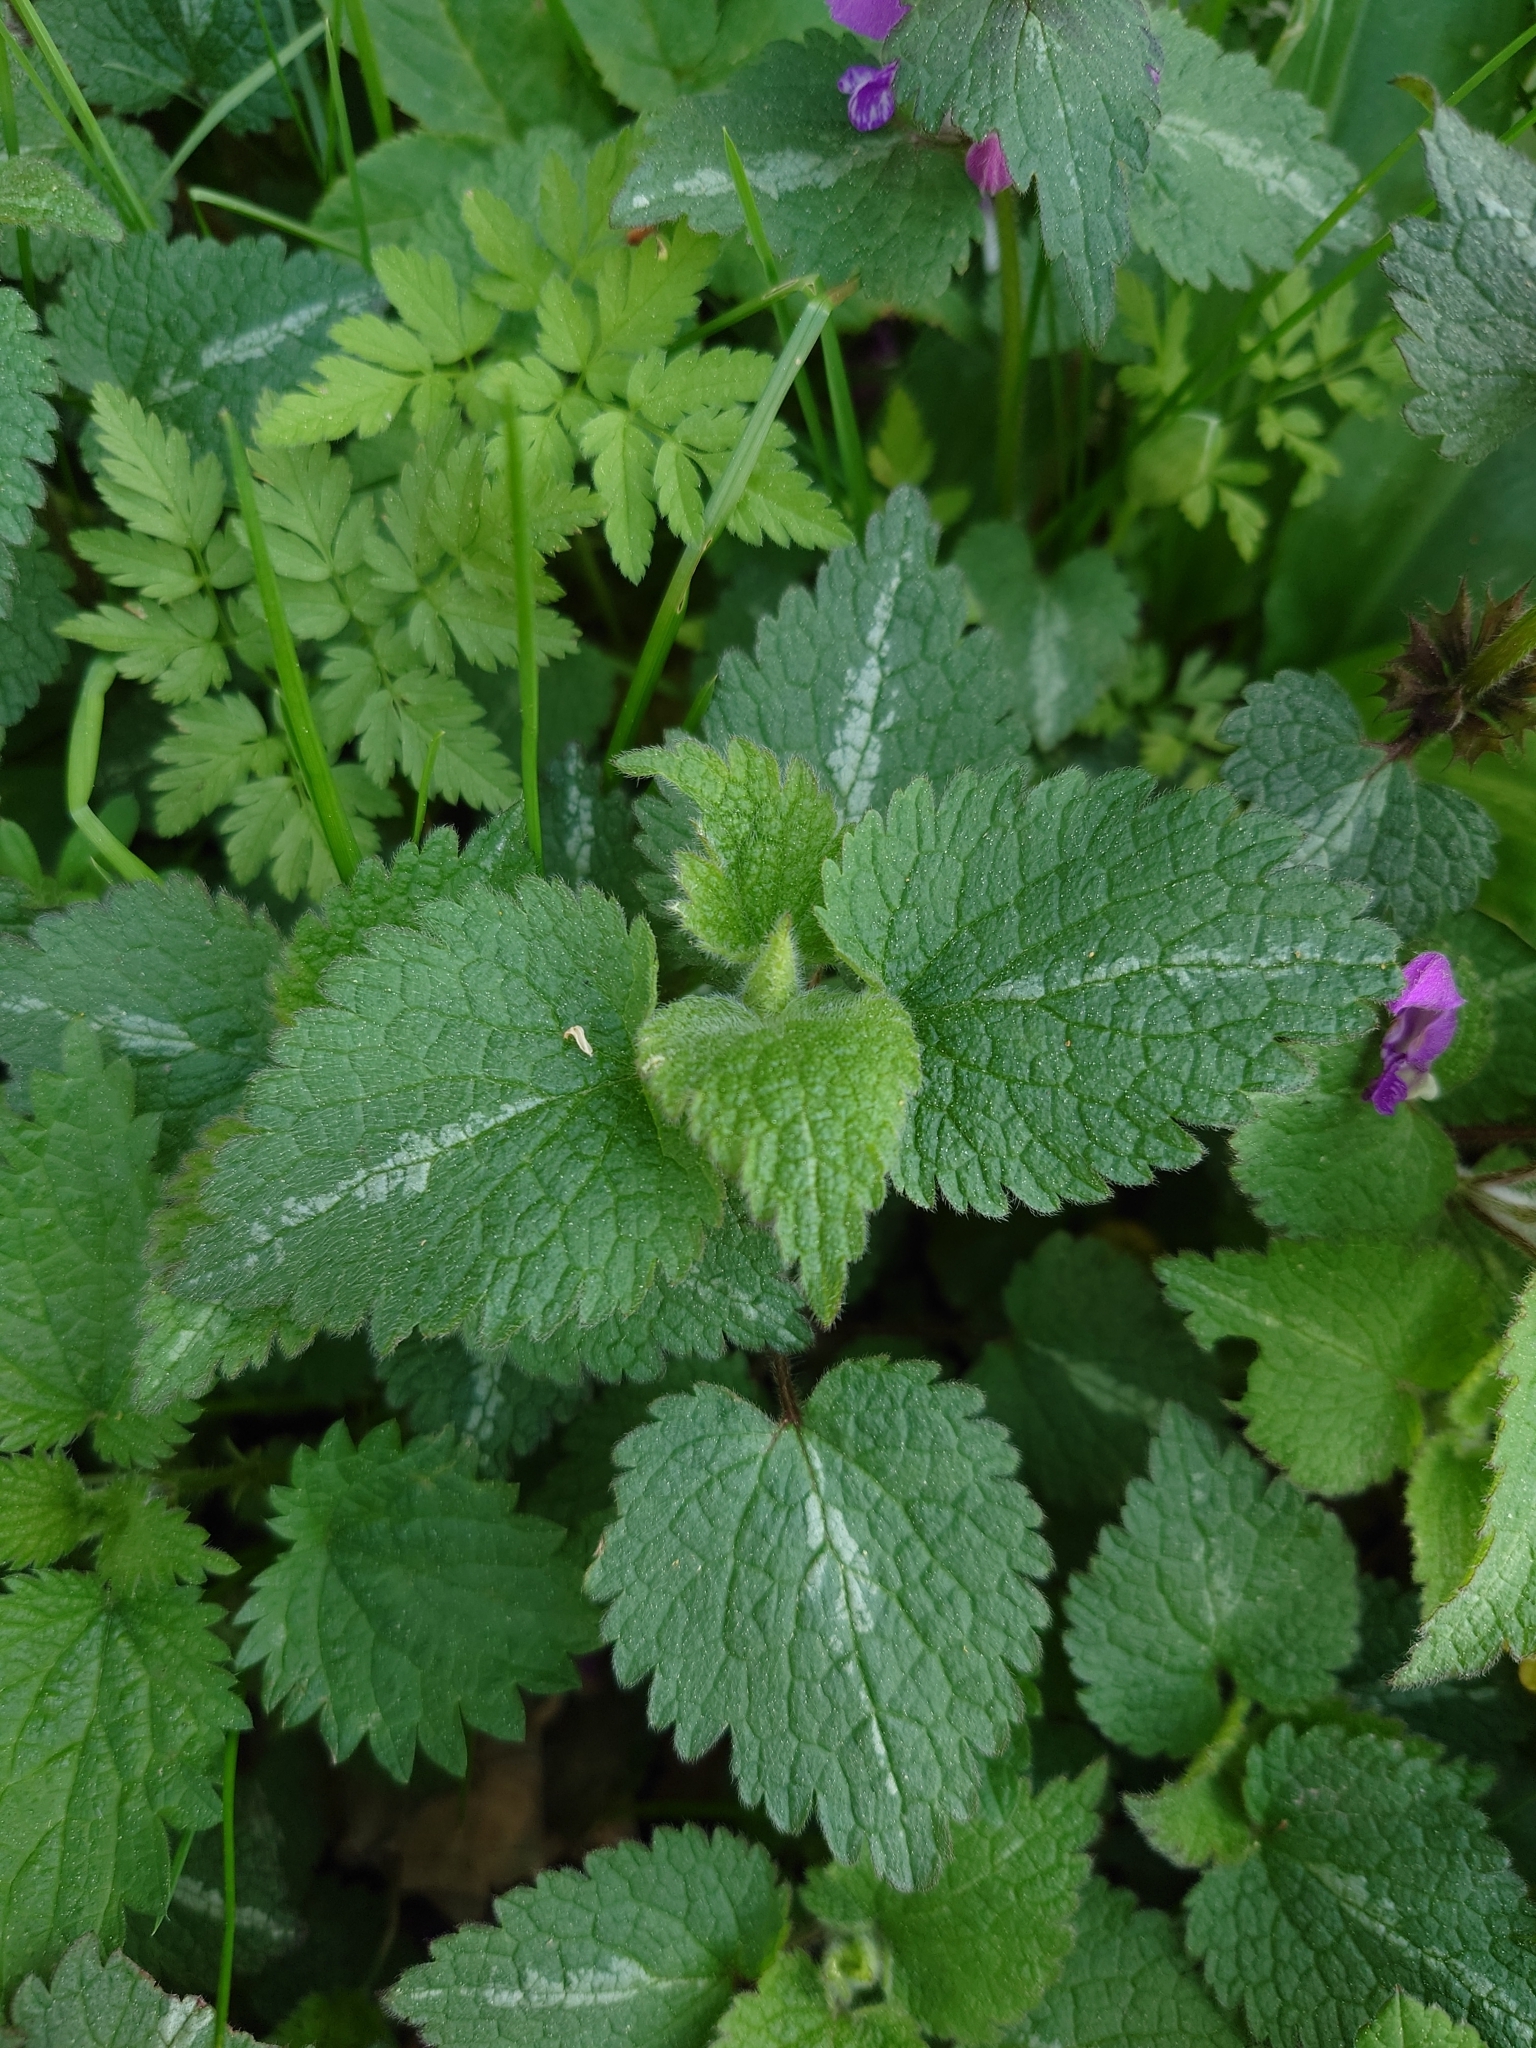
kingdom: Plantae
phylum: Tracheophyta
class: Magnoliopsida
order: Lamiales
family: Lamiaceae
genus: Lamium
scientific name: Lamium maculatum
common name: Spotted dead-nettle
